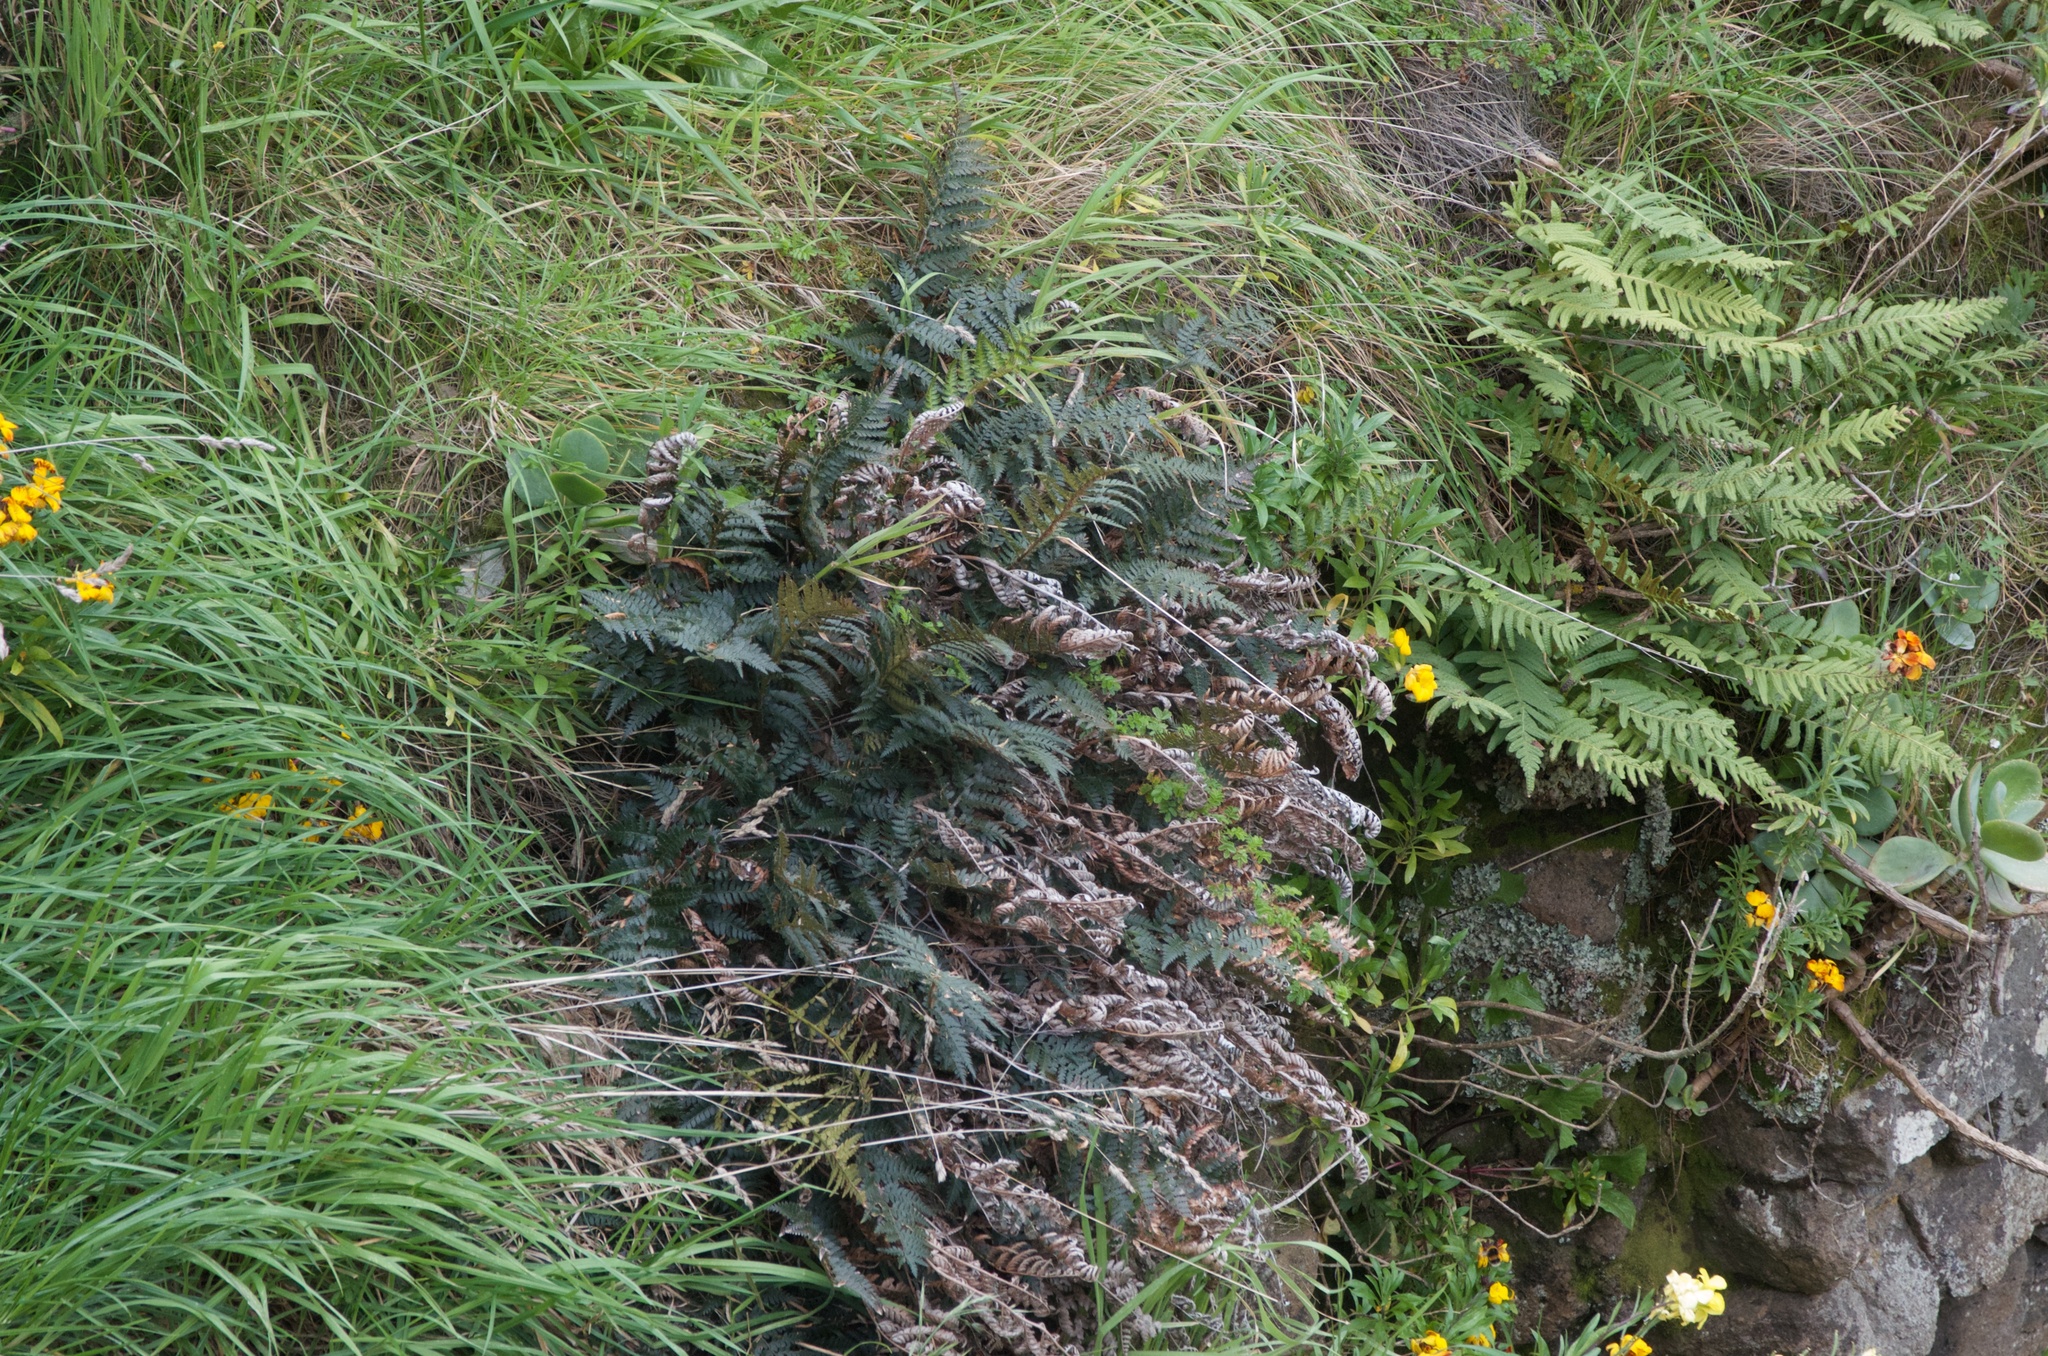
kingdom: Plantae
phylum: Tracheophyta
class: Polypodiopsida
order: Polypodiales
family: Dryopteridaceae
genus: Polystichum
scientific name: Polystichum oculatum
